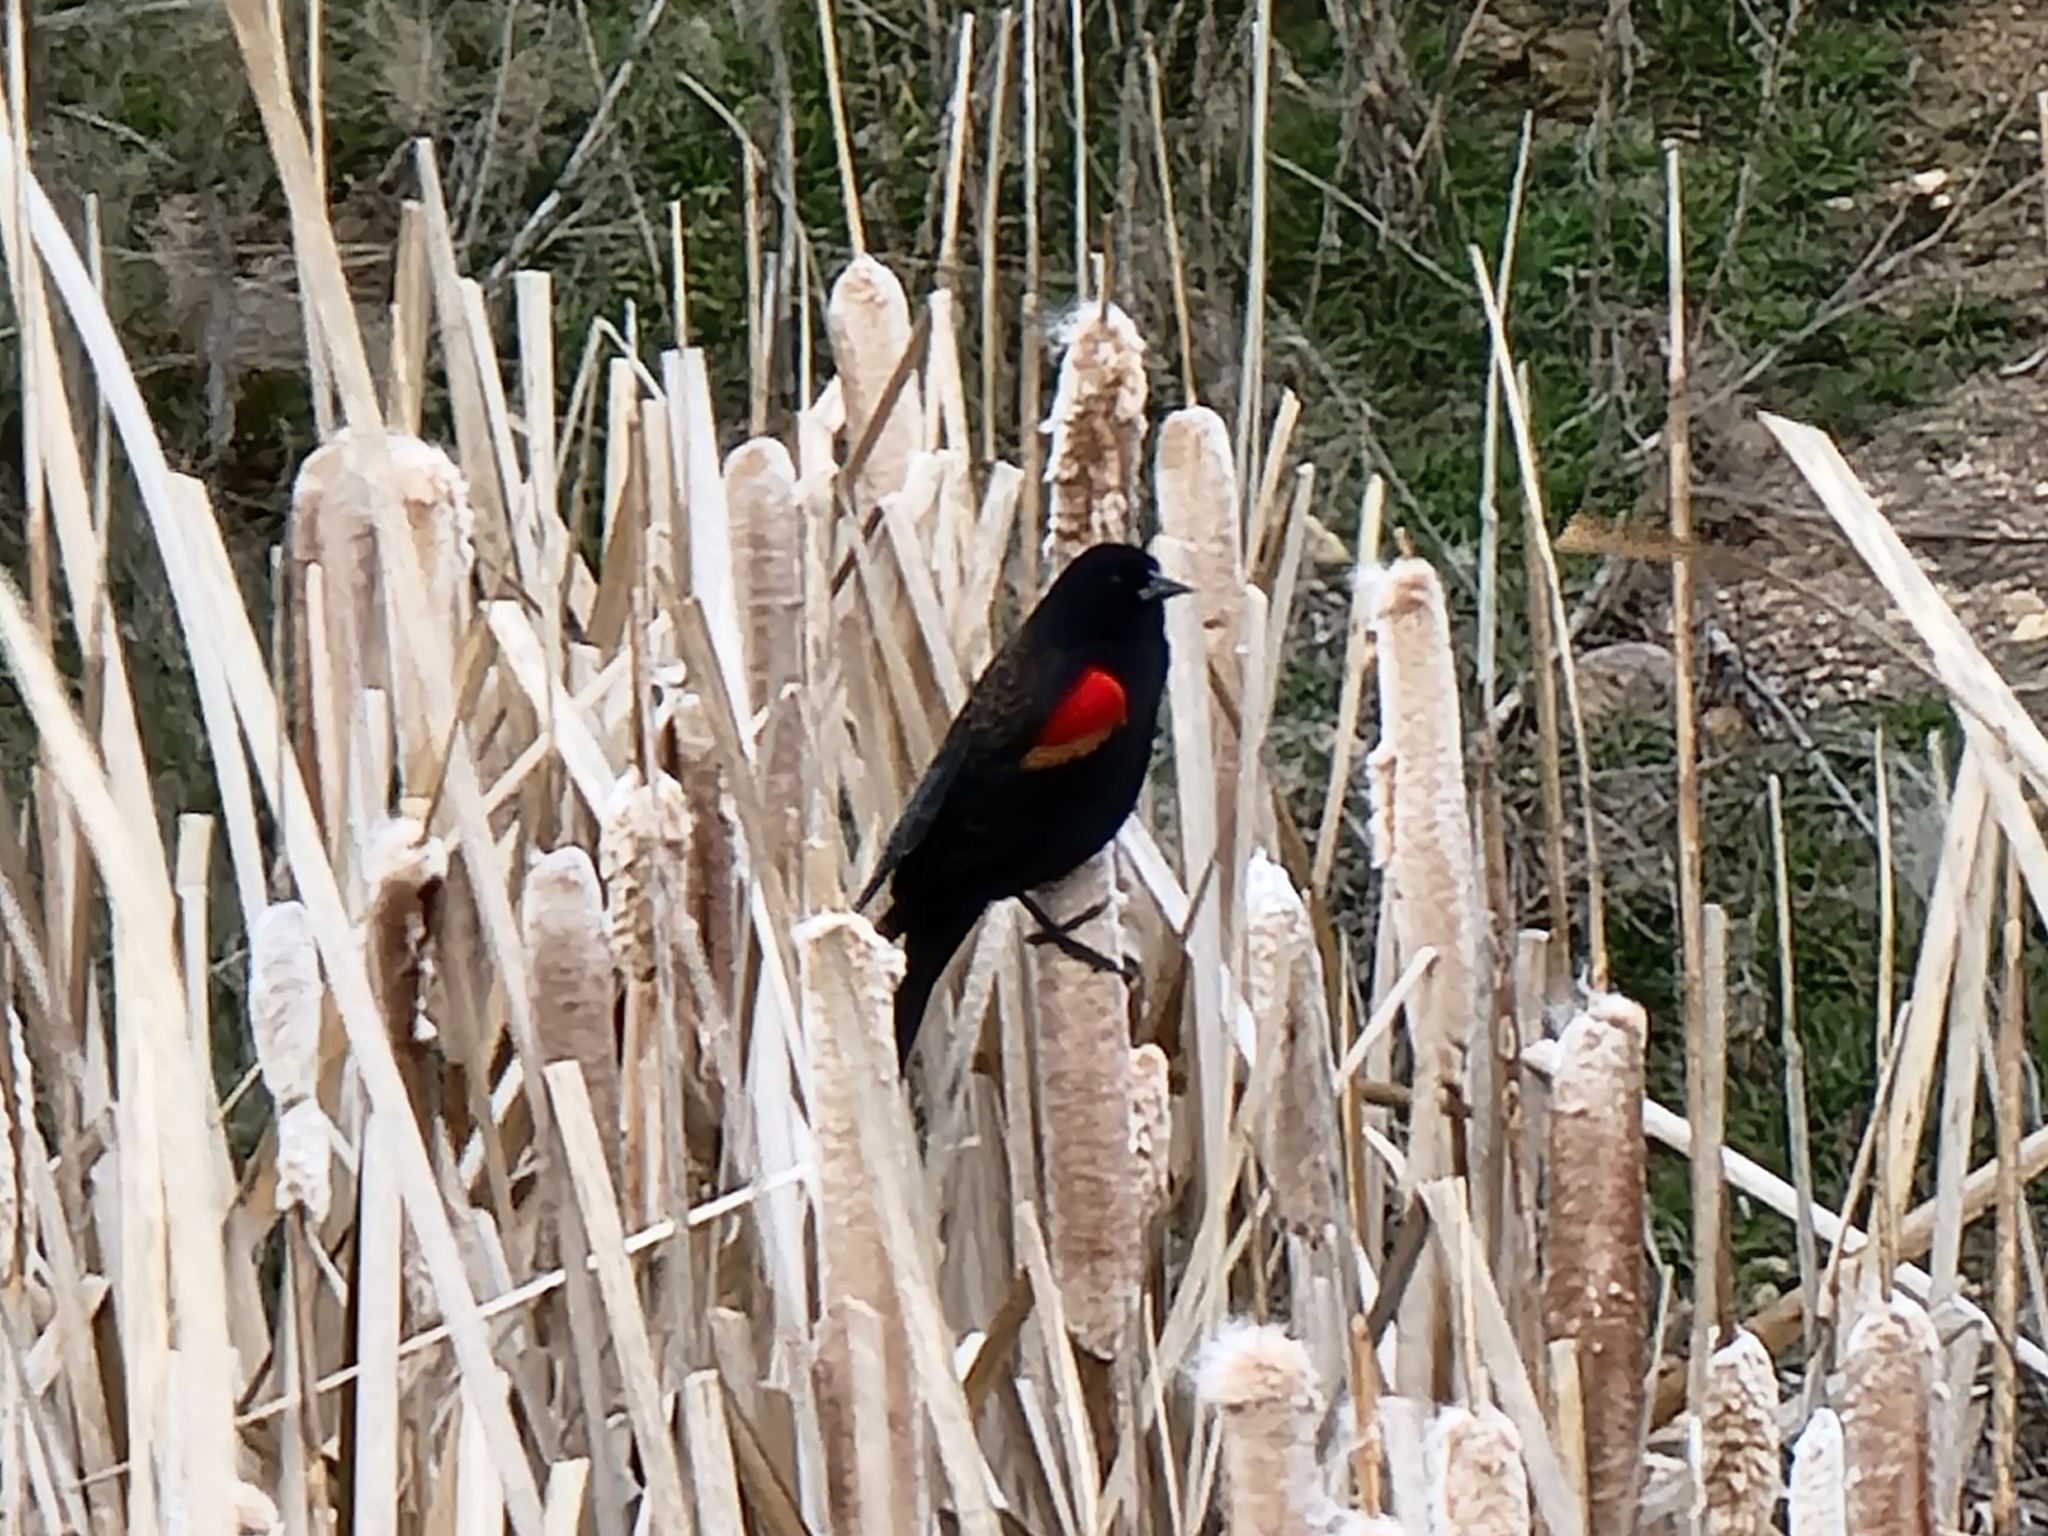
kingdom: Animalia
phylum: Chordata
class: Aves
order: Passeriformes
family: Icteridae
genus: Agelaius
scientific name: Agelaius phoeniceus
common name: Red-winged blackbird
